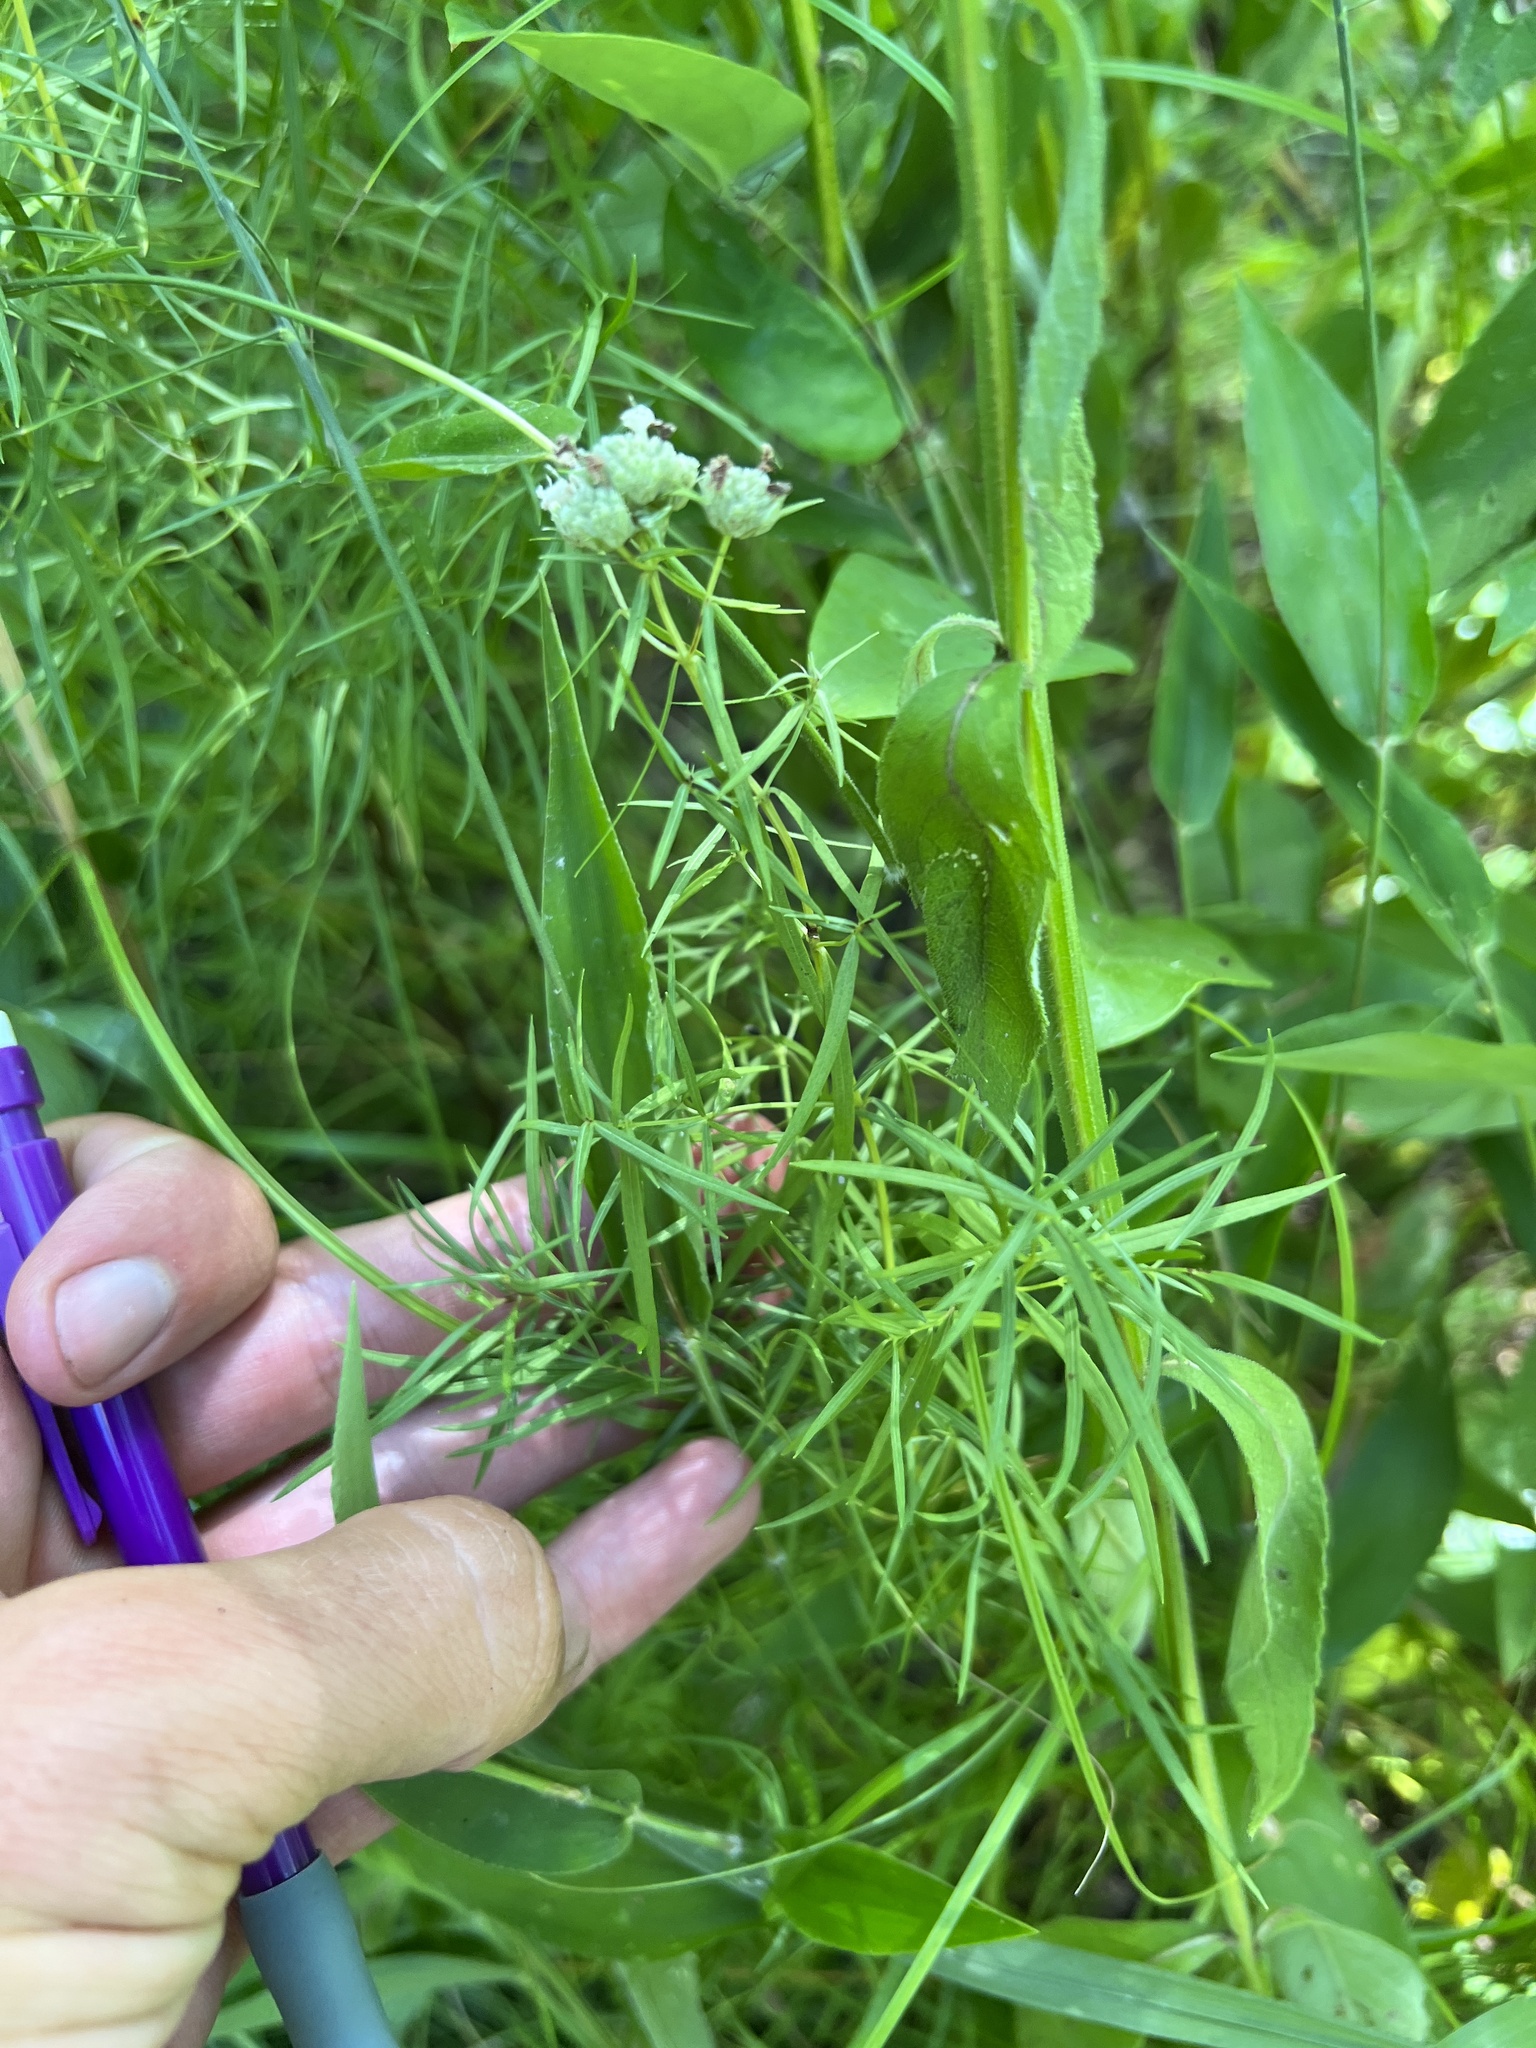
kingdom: Plantae
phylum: Tracheophyta
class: Magnoliopsida
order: Lamiales
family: Lamiaceae
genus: Pycnanthemum
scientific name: Pycnanthemum tenuifolium
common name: Narrow-leaf mountain-mint
